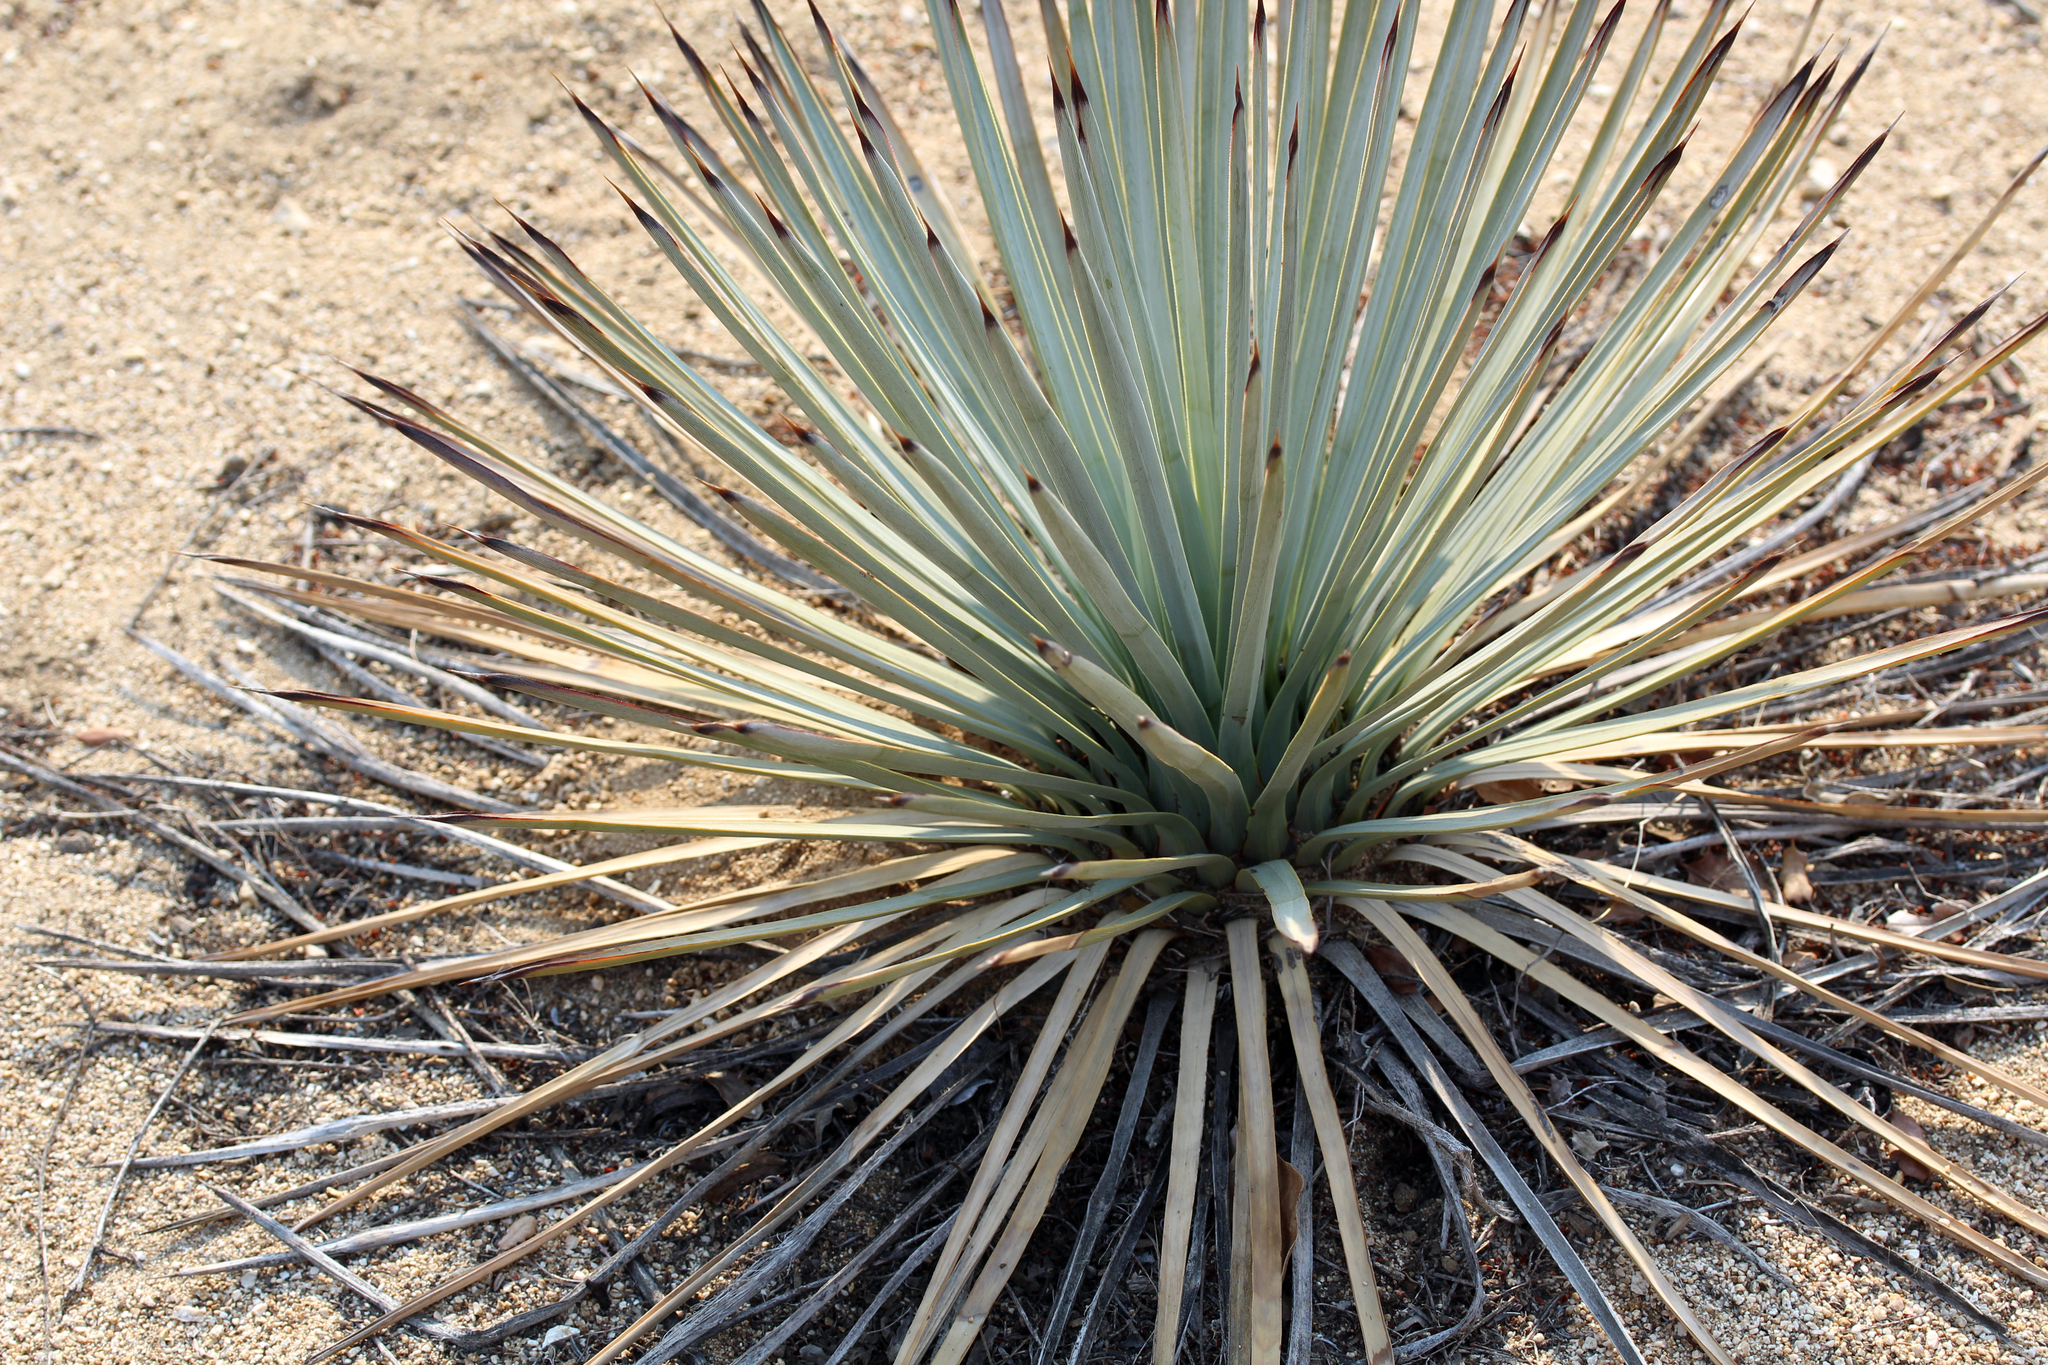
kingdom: Plantae
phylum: Tracheophyta
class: Liliopsida
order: Asparagales
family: Asparagaceae
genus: Hesperoyucca
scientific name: Hesperoyucca whipplei
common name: Our lord's-candle
